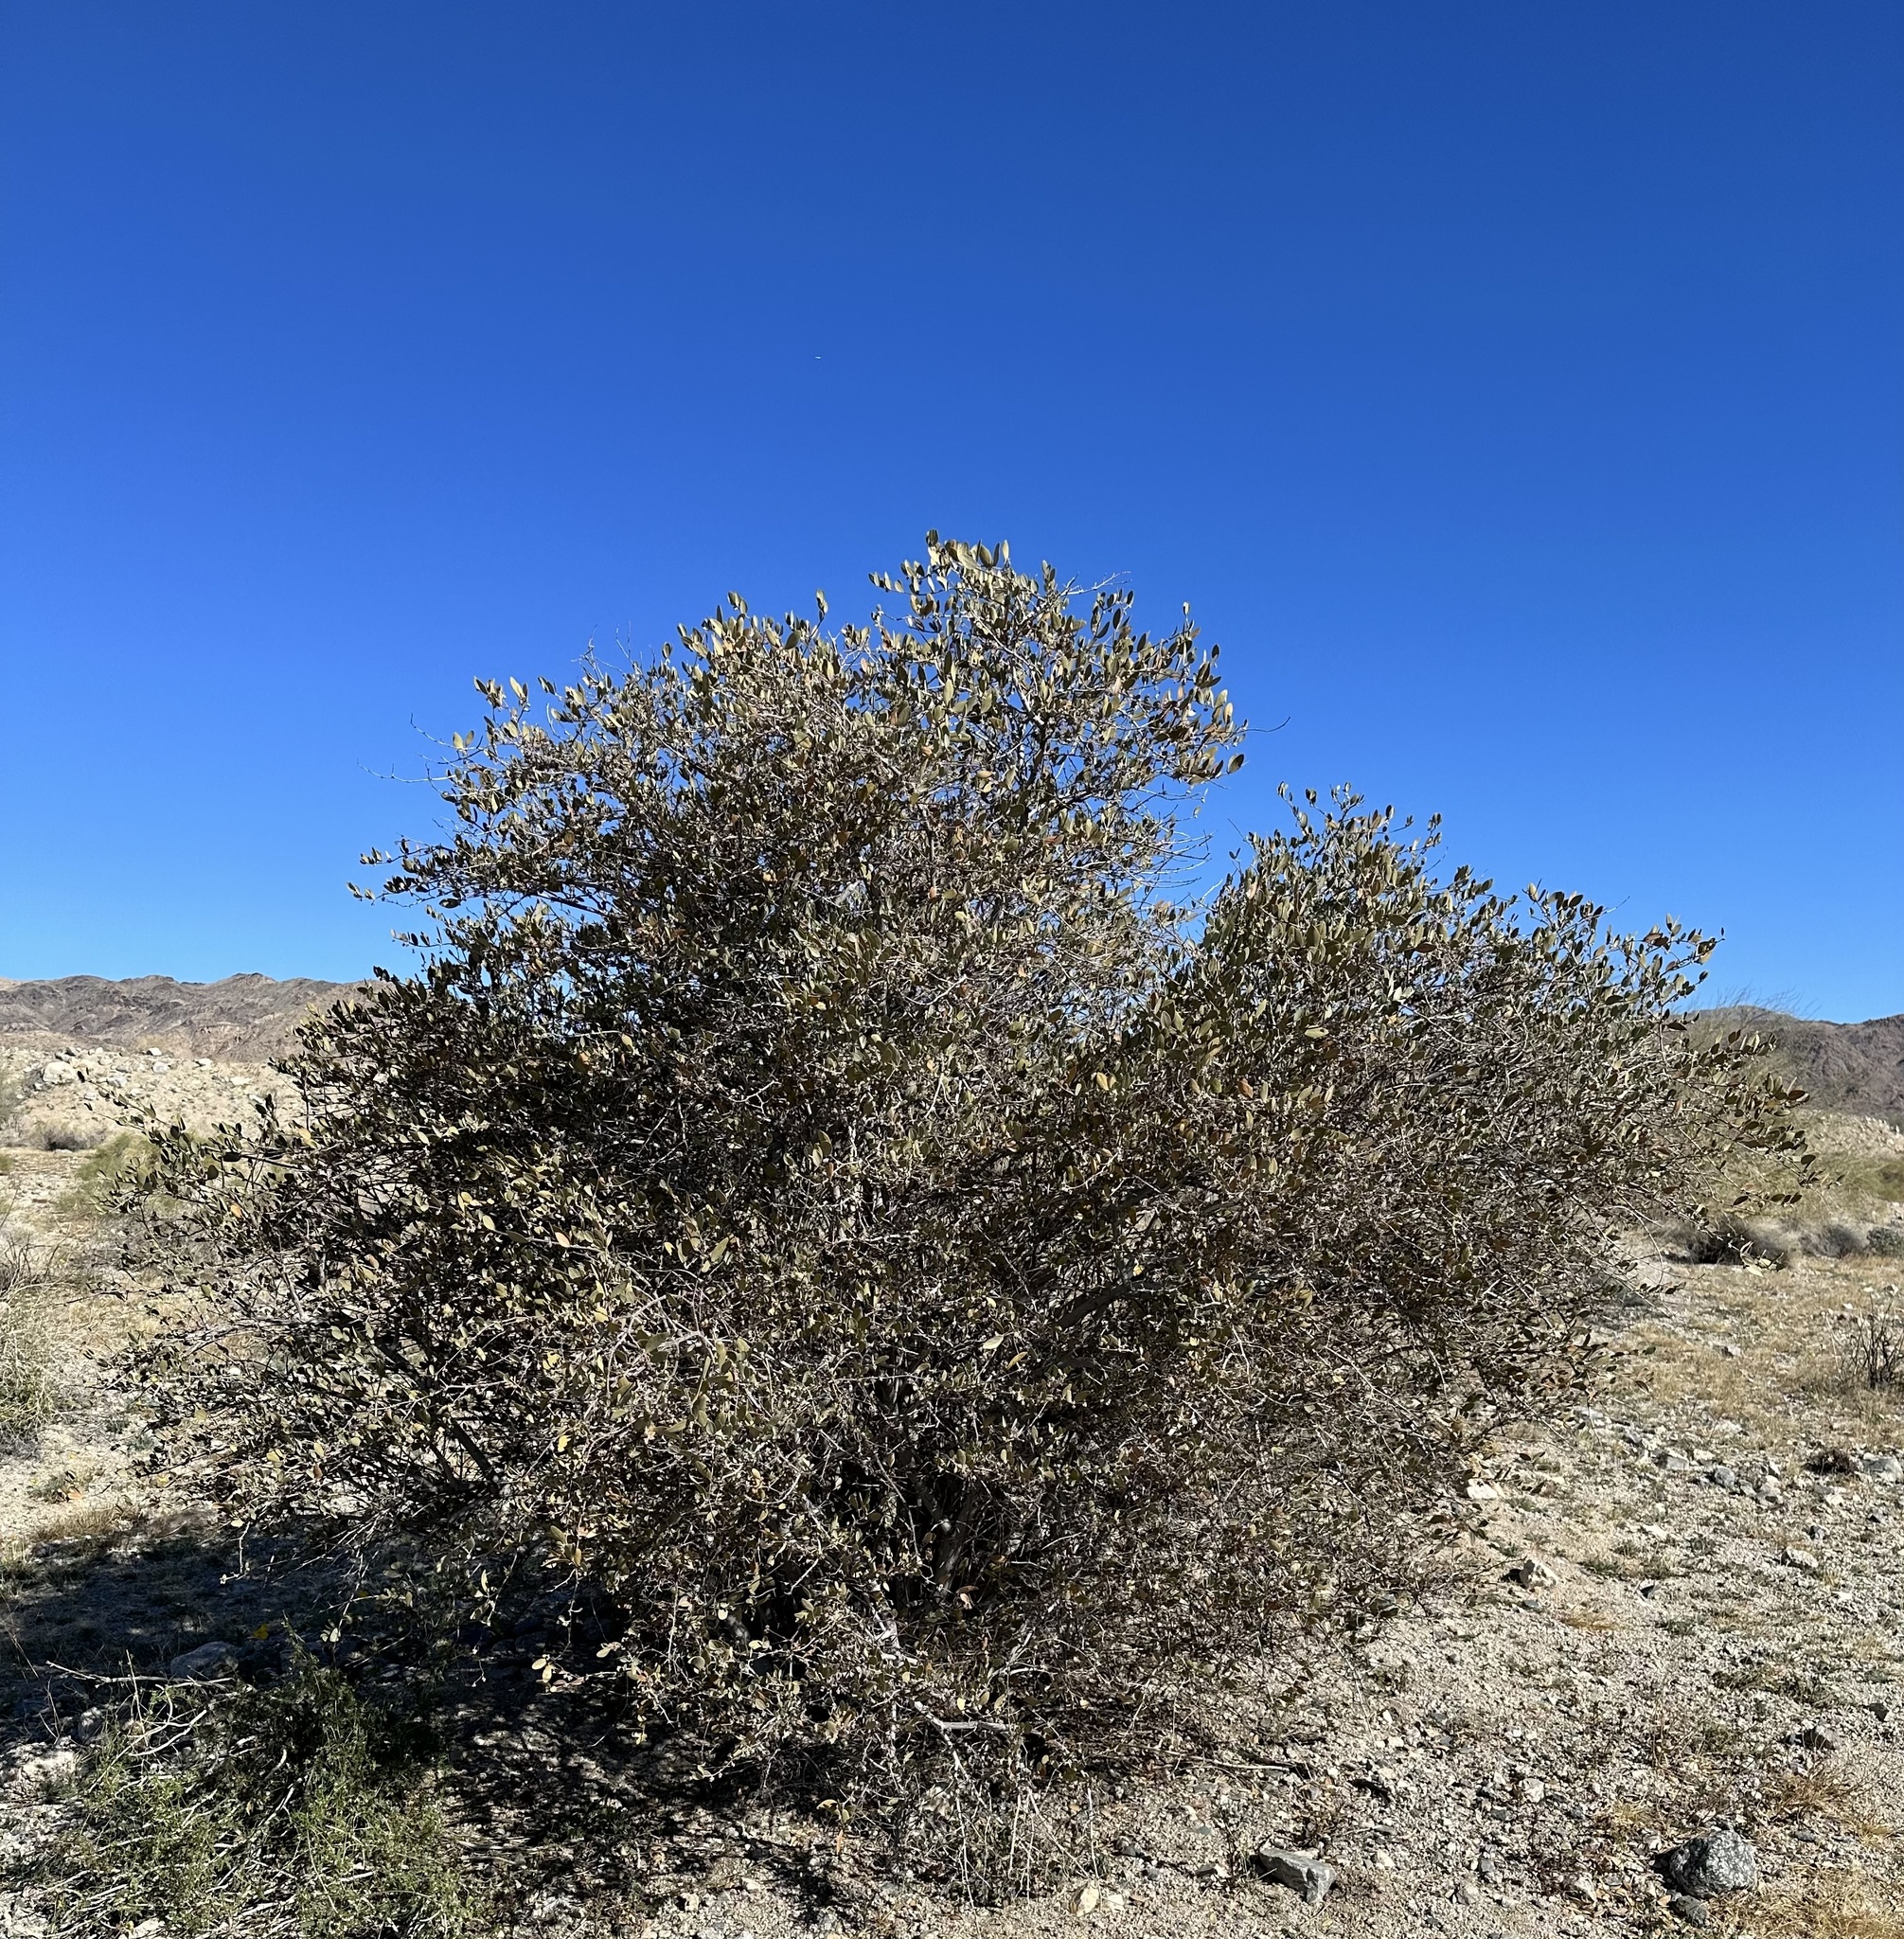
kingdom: Plantae
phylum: Tracheophyta
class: Magnoliopsida
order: Caryophyllales
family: Simmondsiaceae
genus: Simmondsia
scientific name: Simmondsia chinensis
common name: Jojoba
